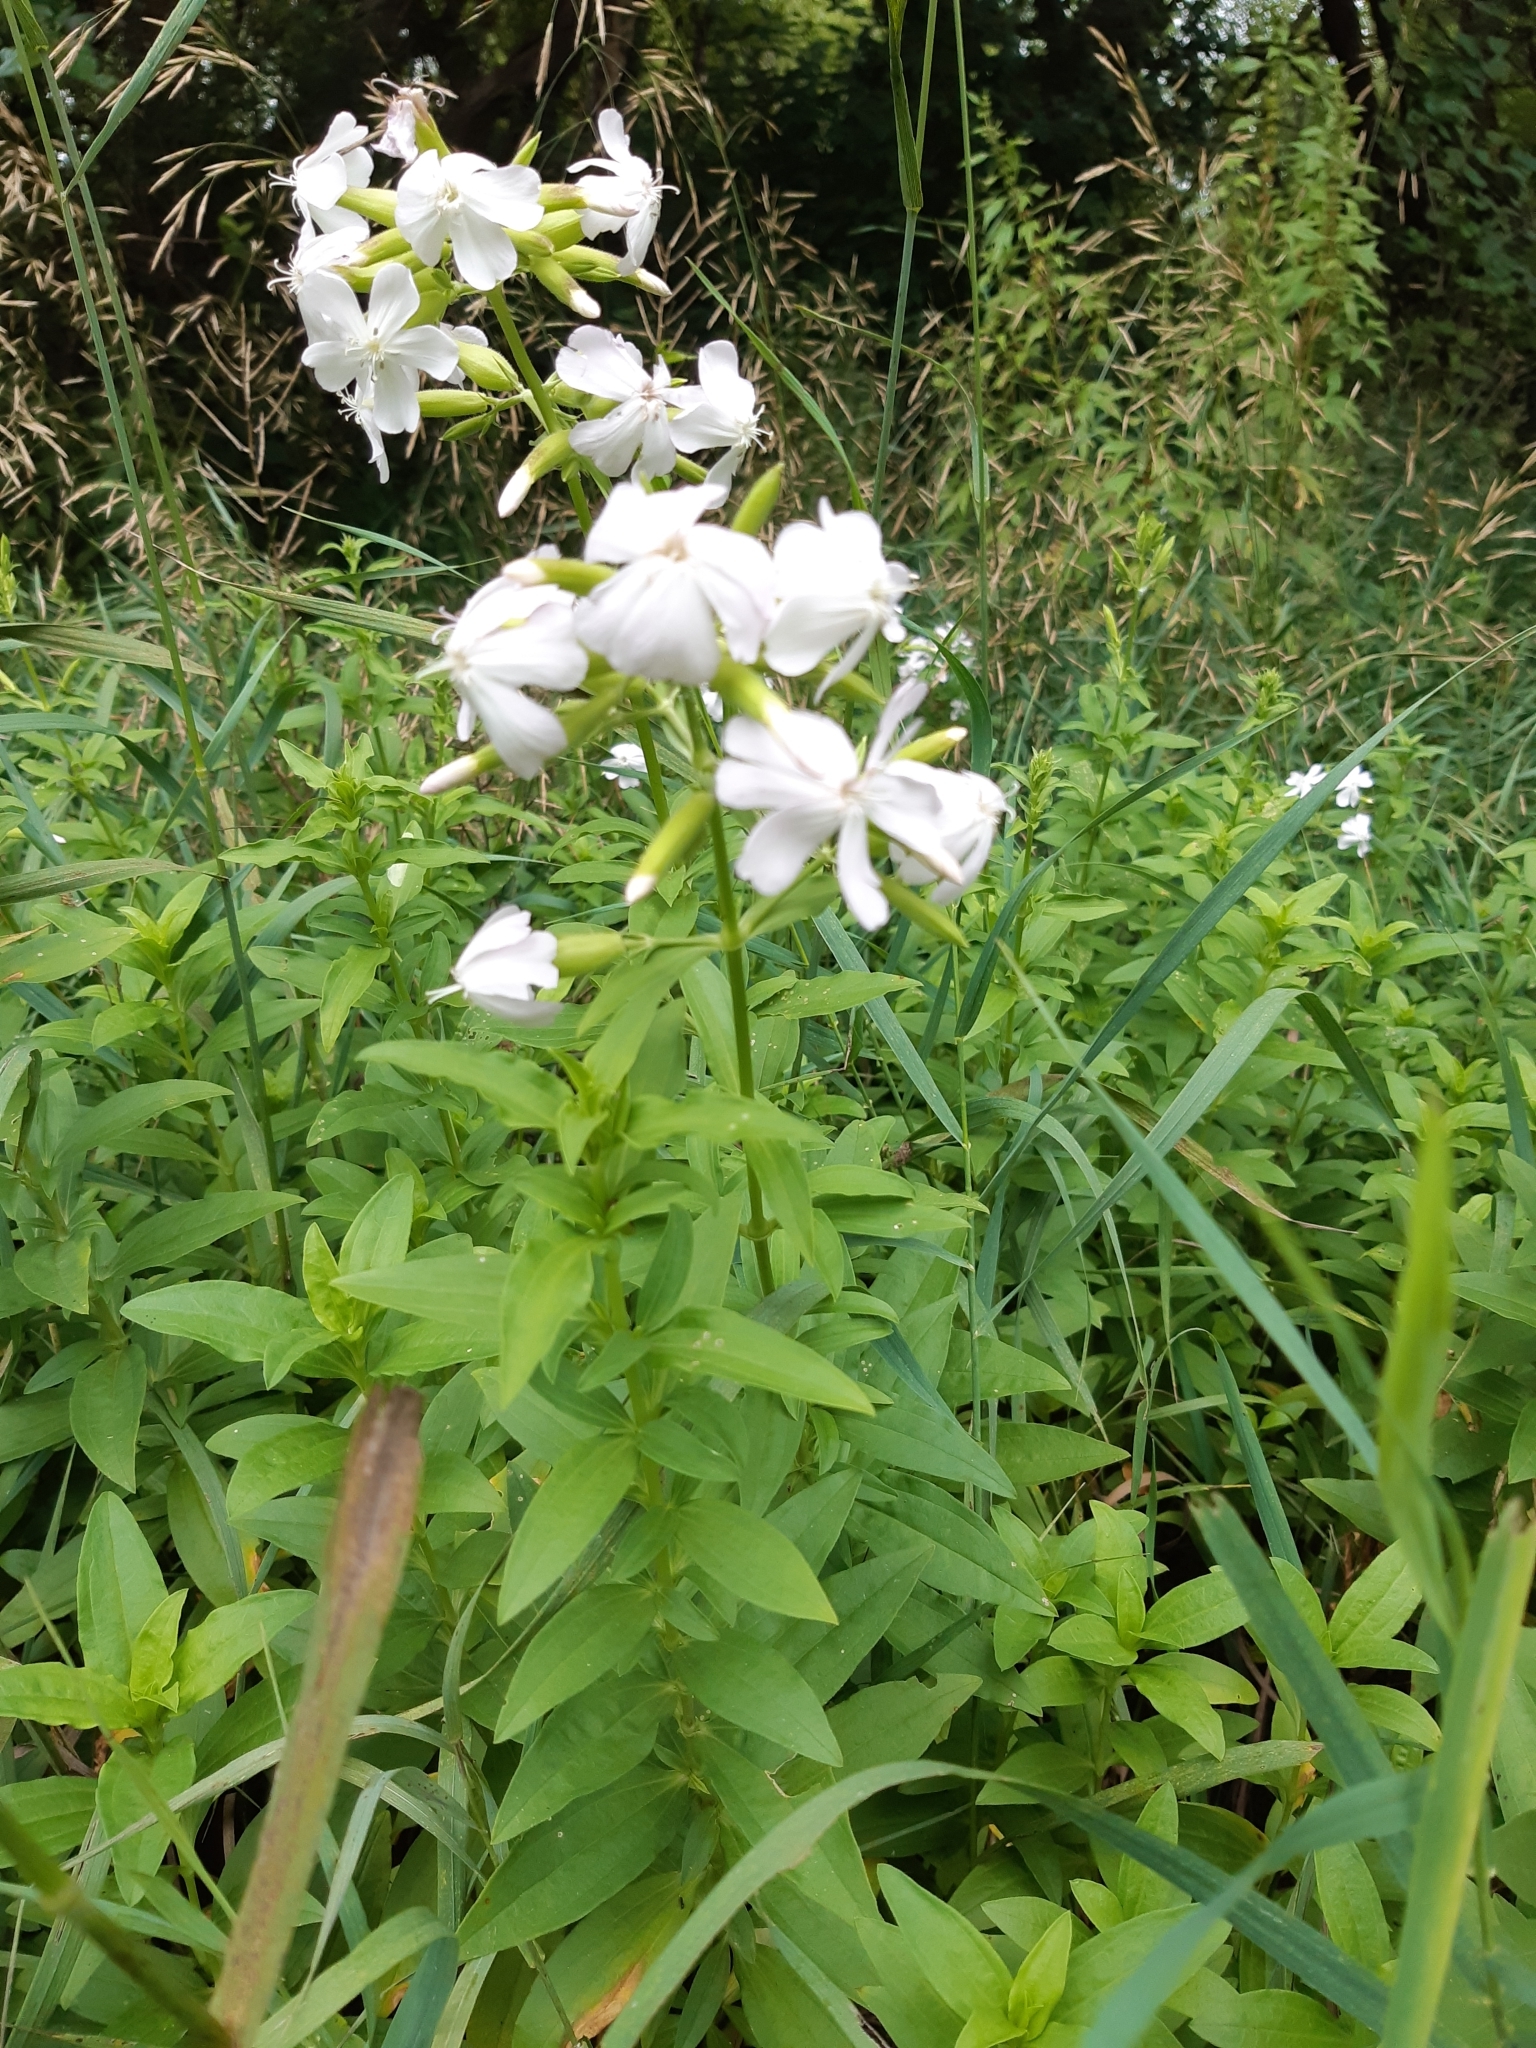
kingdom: Plantae
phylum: Tracheophyta
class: Magnoliopsida
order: Caryophyllales
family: Caryophyllaceae
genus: Saponaria
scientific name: Saponaria officinalis
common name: Soapwort
